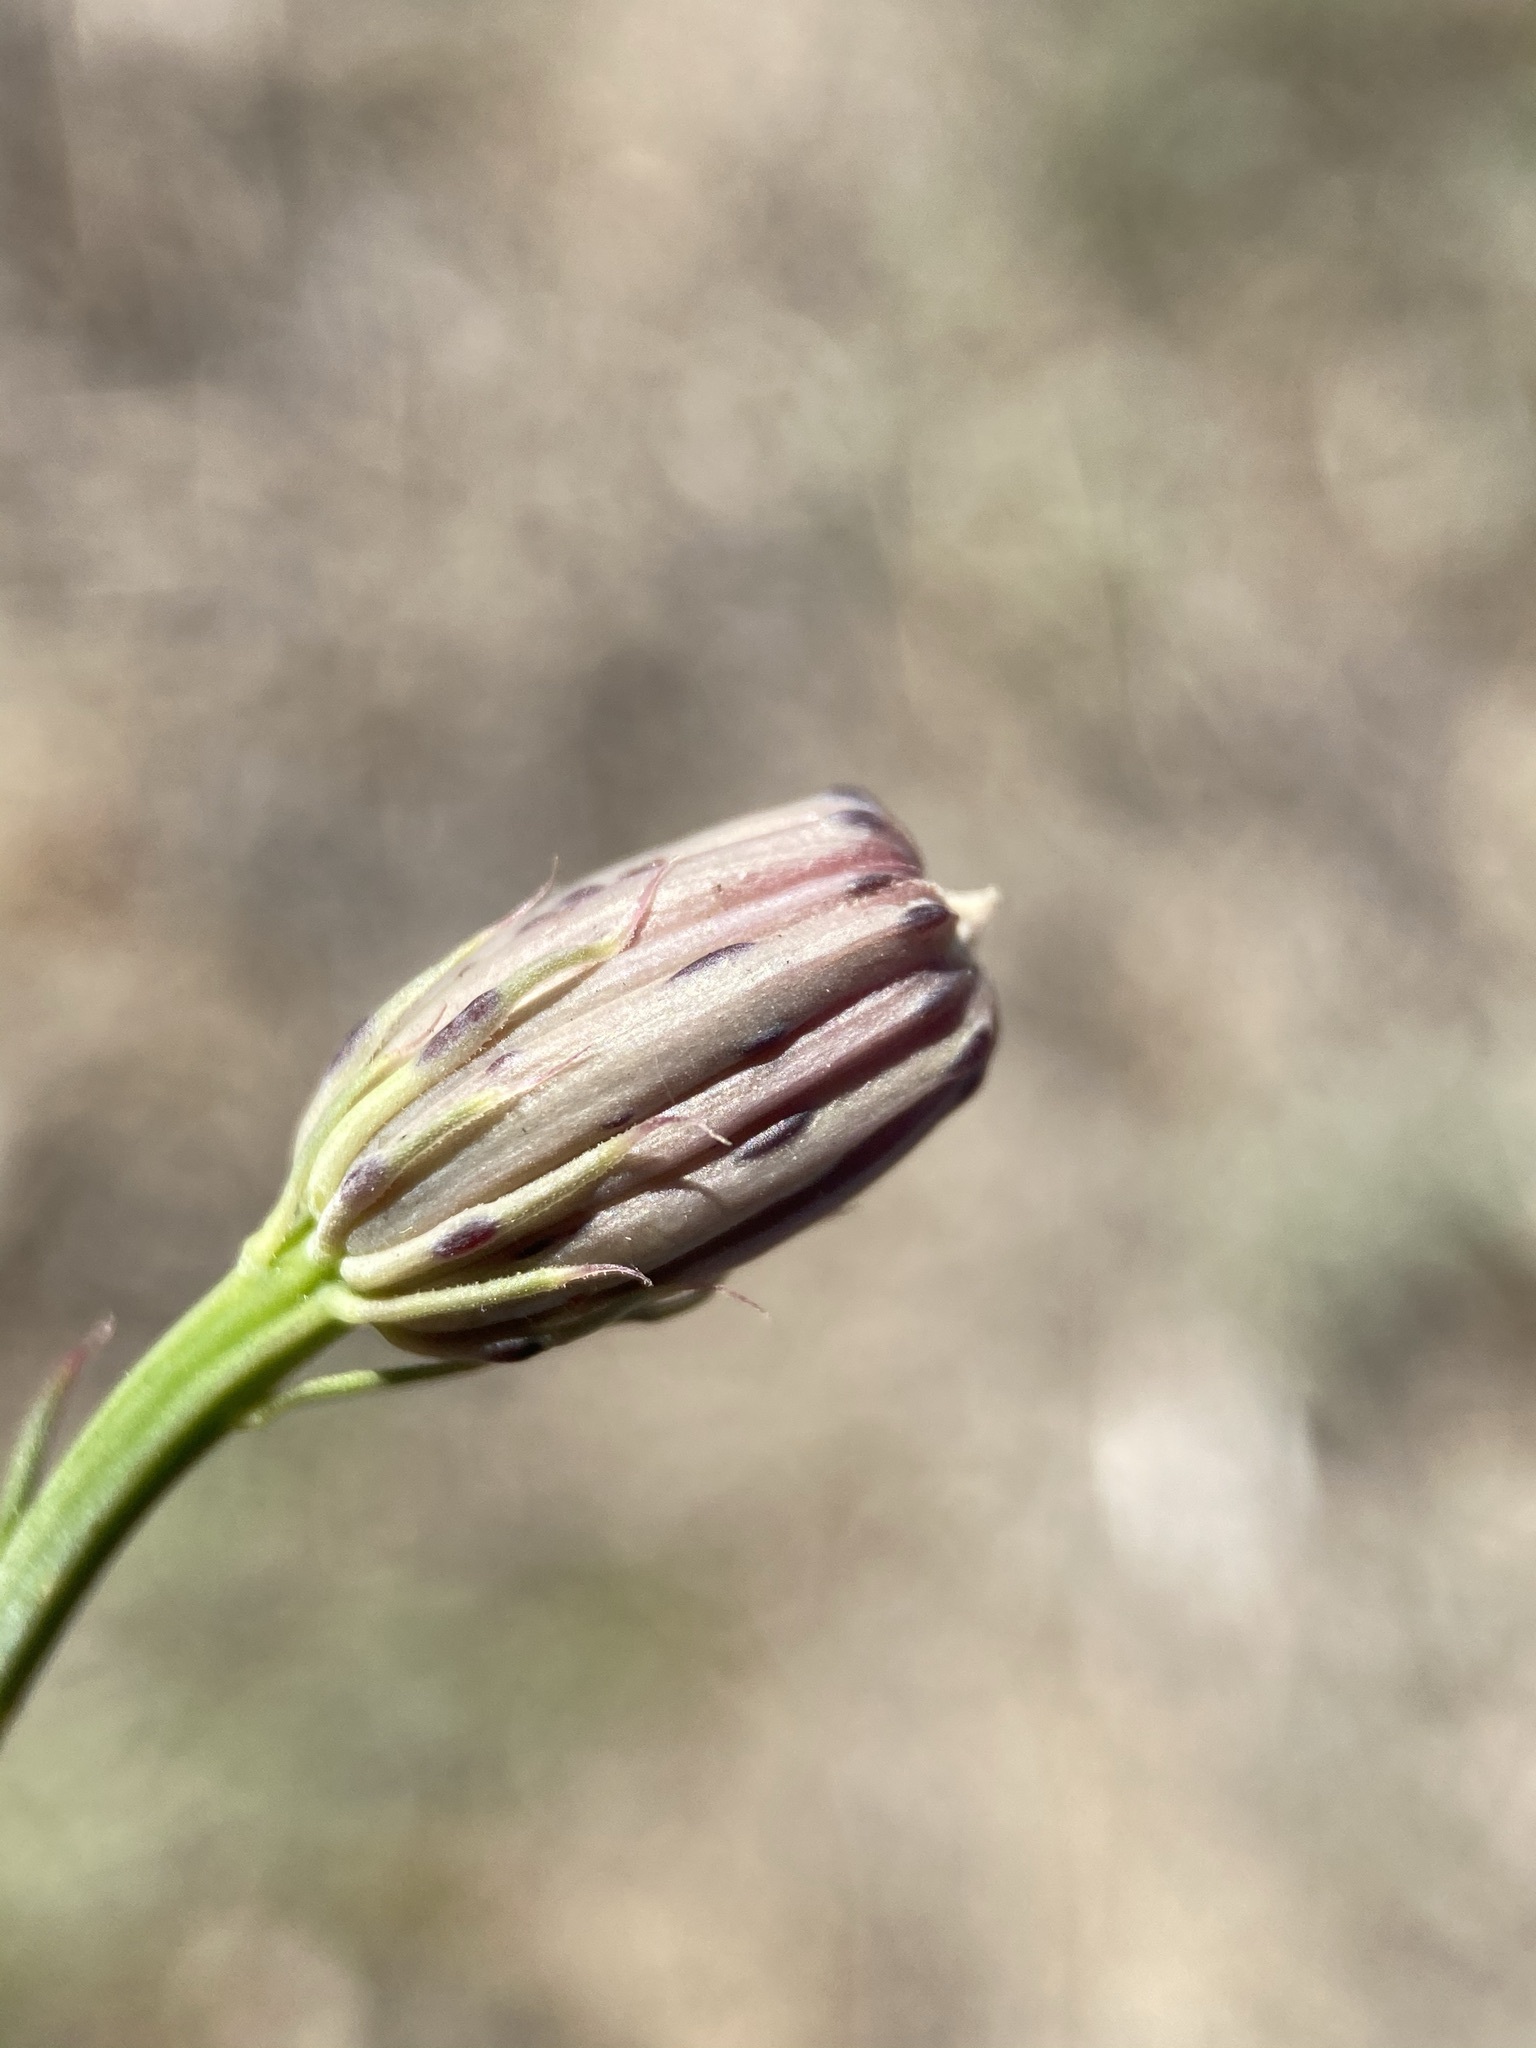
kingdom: Plantae
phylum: Tracheophyta
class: Magnoliopsida
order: Asterales
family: Asteraceae
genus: Adenophyllum
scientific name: Adenophyllum porophylloides
